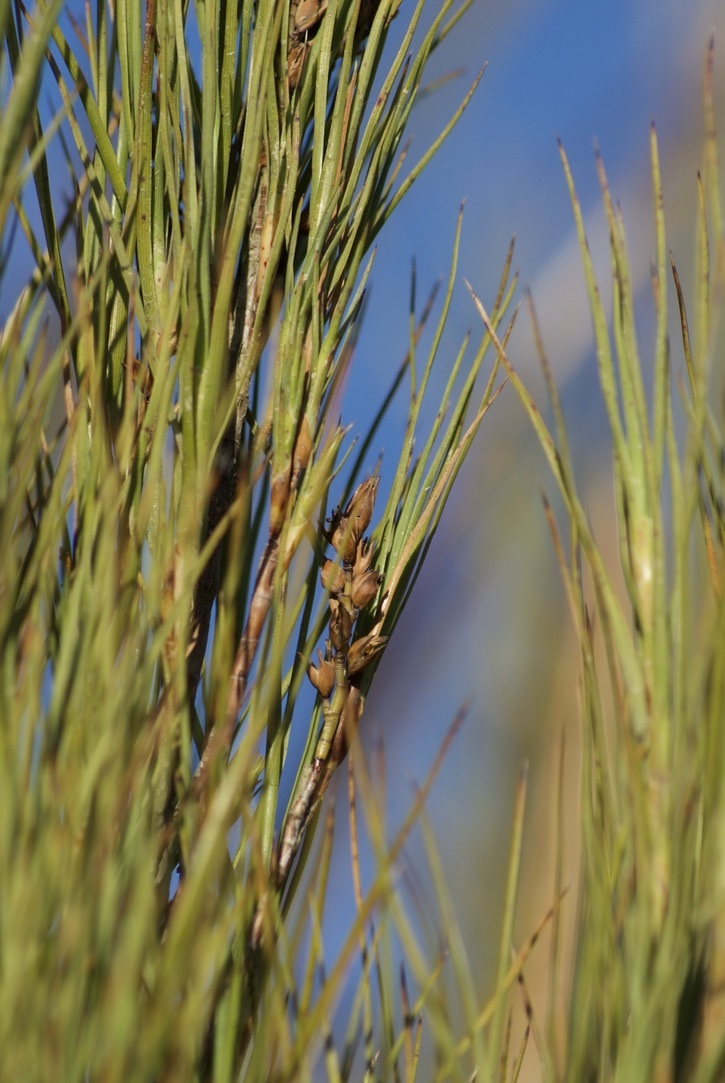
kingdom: Plantae
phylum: Tracheophyta
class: Magnoliopsida
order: Ericales
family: Ericaceae
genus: Dracophyllum
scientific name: Dracophyllum longifolium
